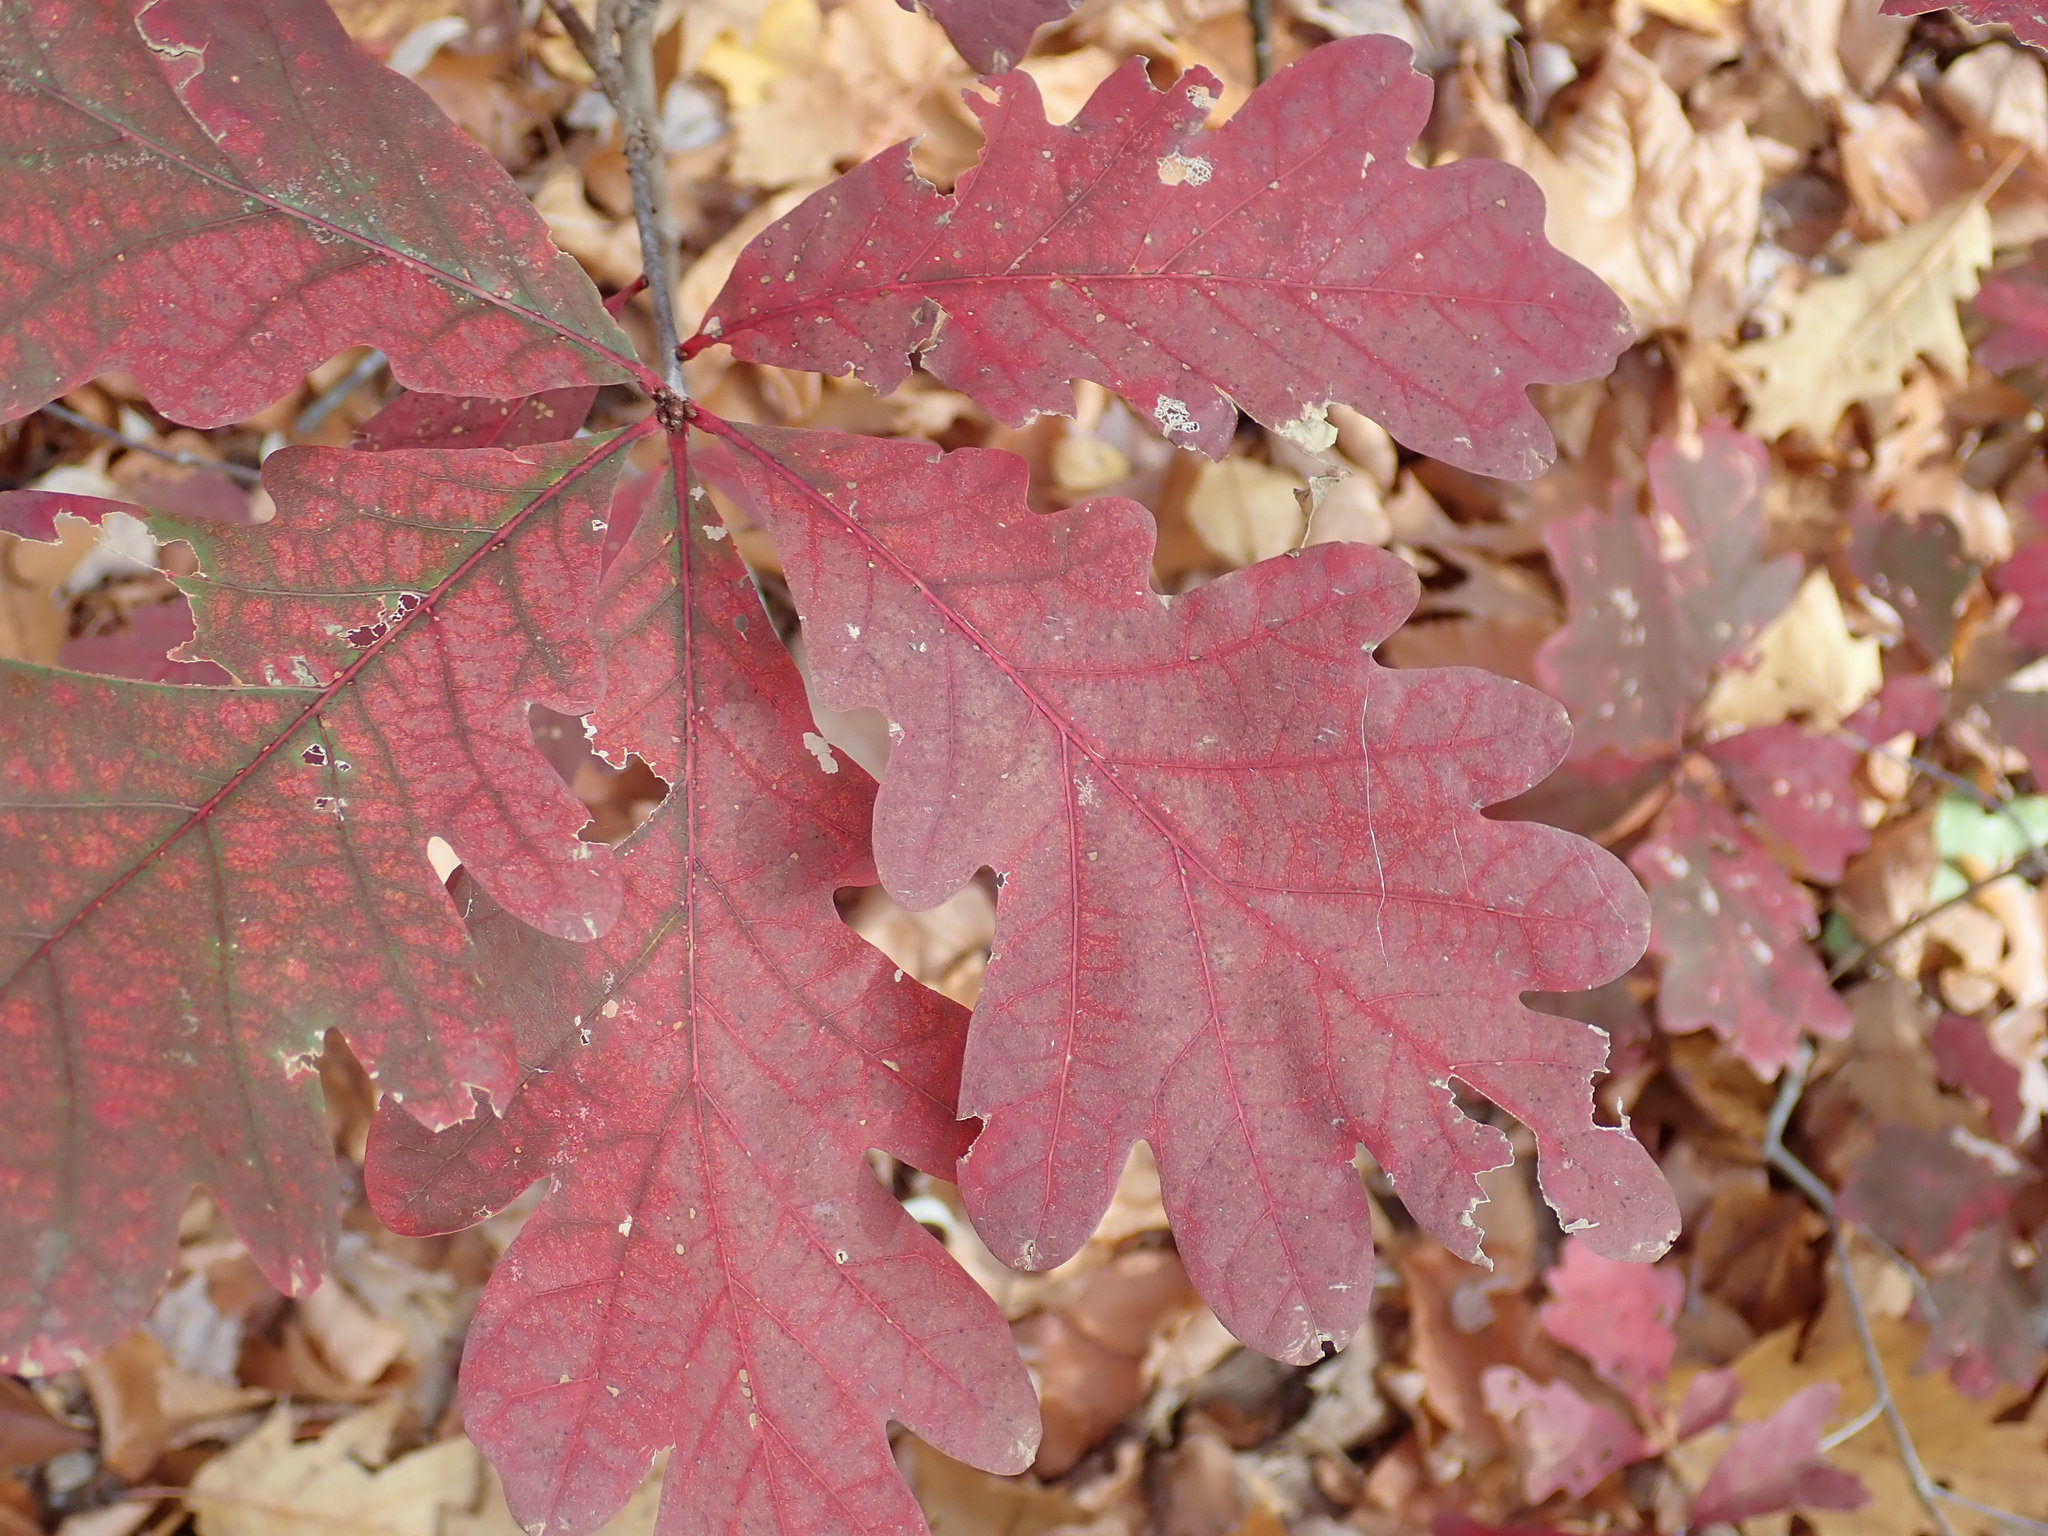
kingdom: Plantae
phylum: Tracheophyta
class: Magnoliopsida
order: Fagales
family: Fagaceae
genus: Quercus
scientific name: Quercus alba
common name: White oak
